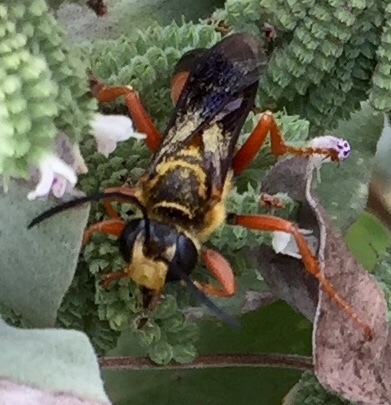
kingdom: Animalia
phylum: Arthropoda
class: Insecta
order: Hymenoptera
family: Sphecidae
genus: Sphex
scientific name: Sphex ichneumoneus
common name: Great golden digger wasp
